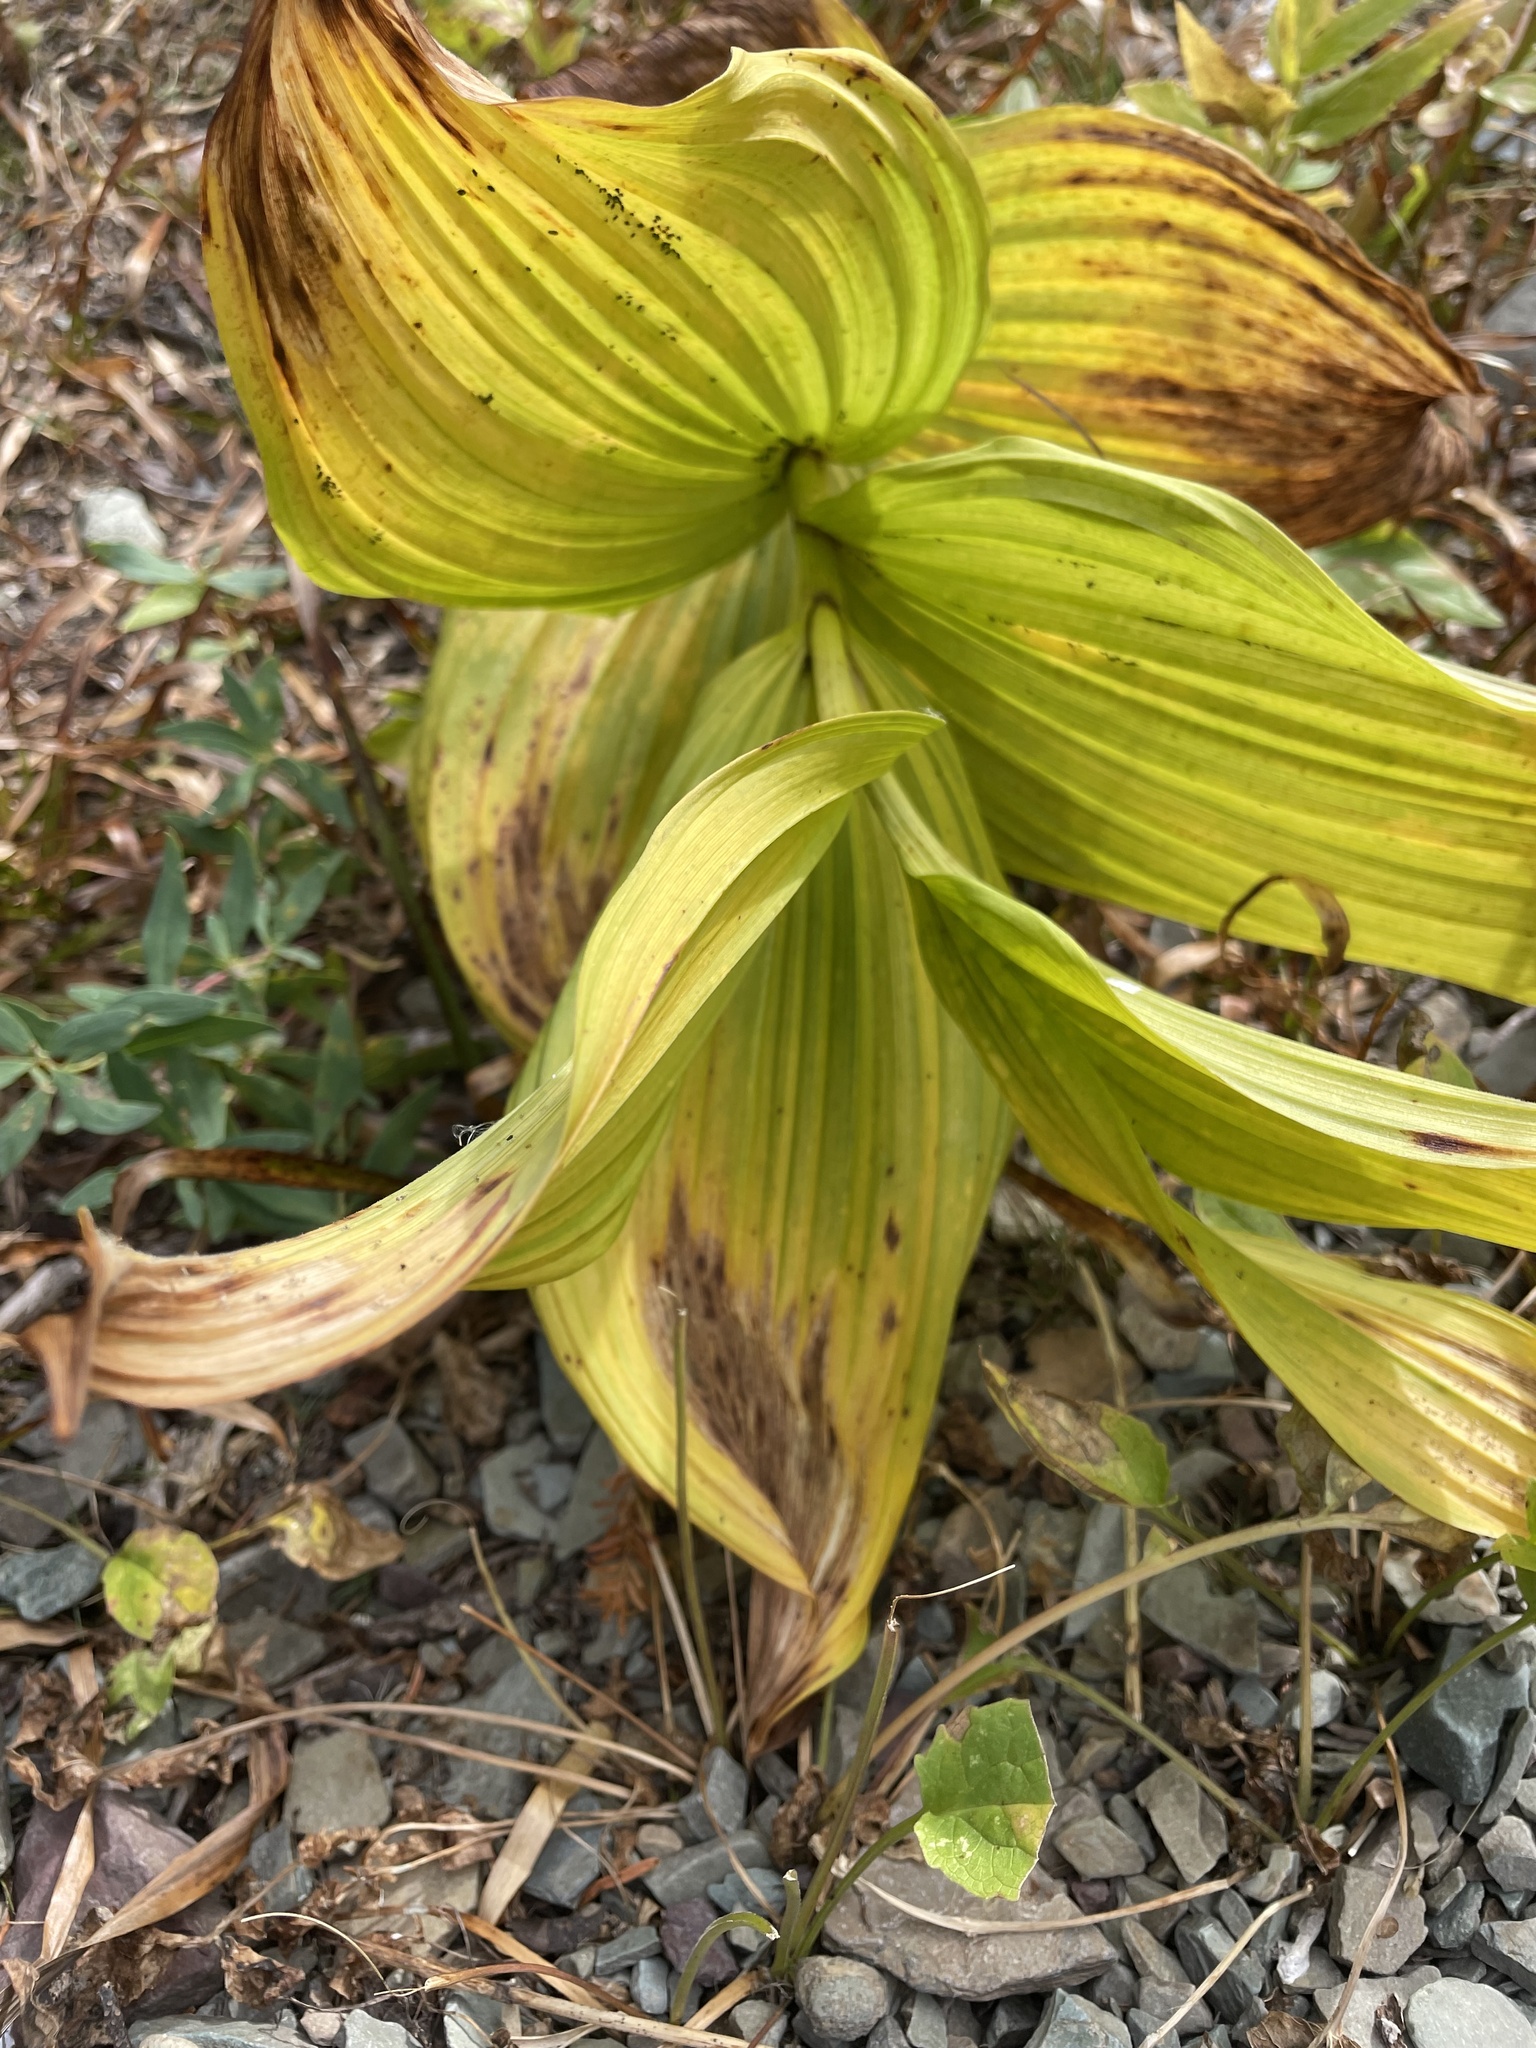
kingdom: Plantae
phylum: Tracheophyta
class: Liliopsida
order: Liliales
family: Melanthiaceae
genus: Veratrum
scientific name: Veratrum viride
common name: American false hellebore
